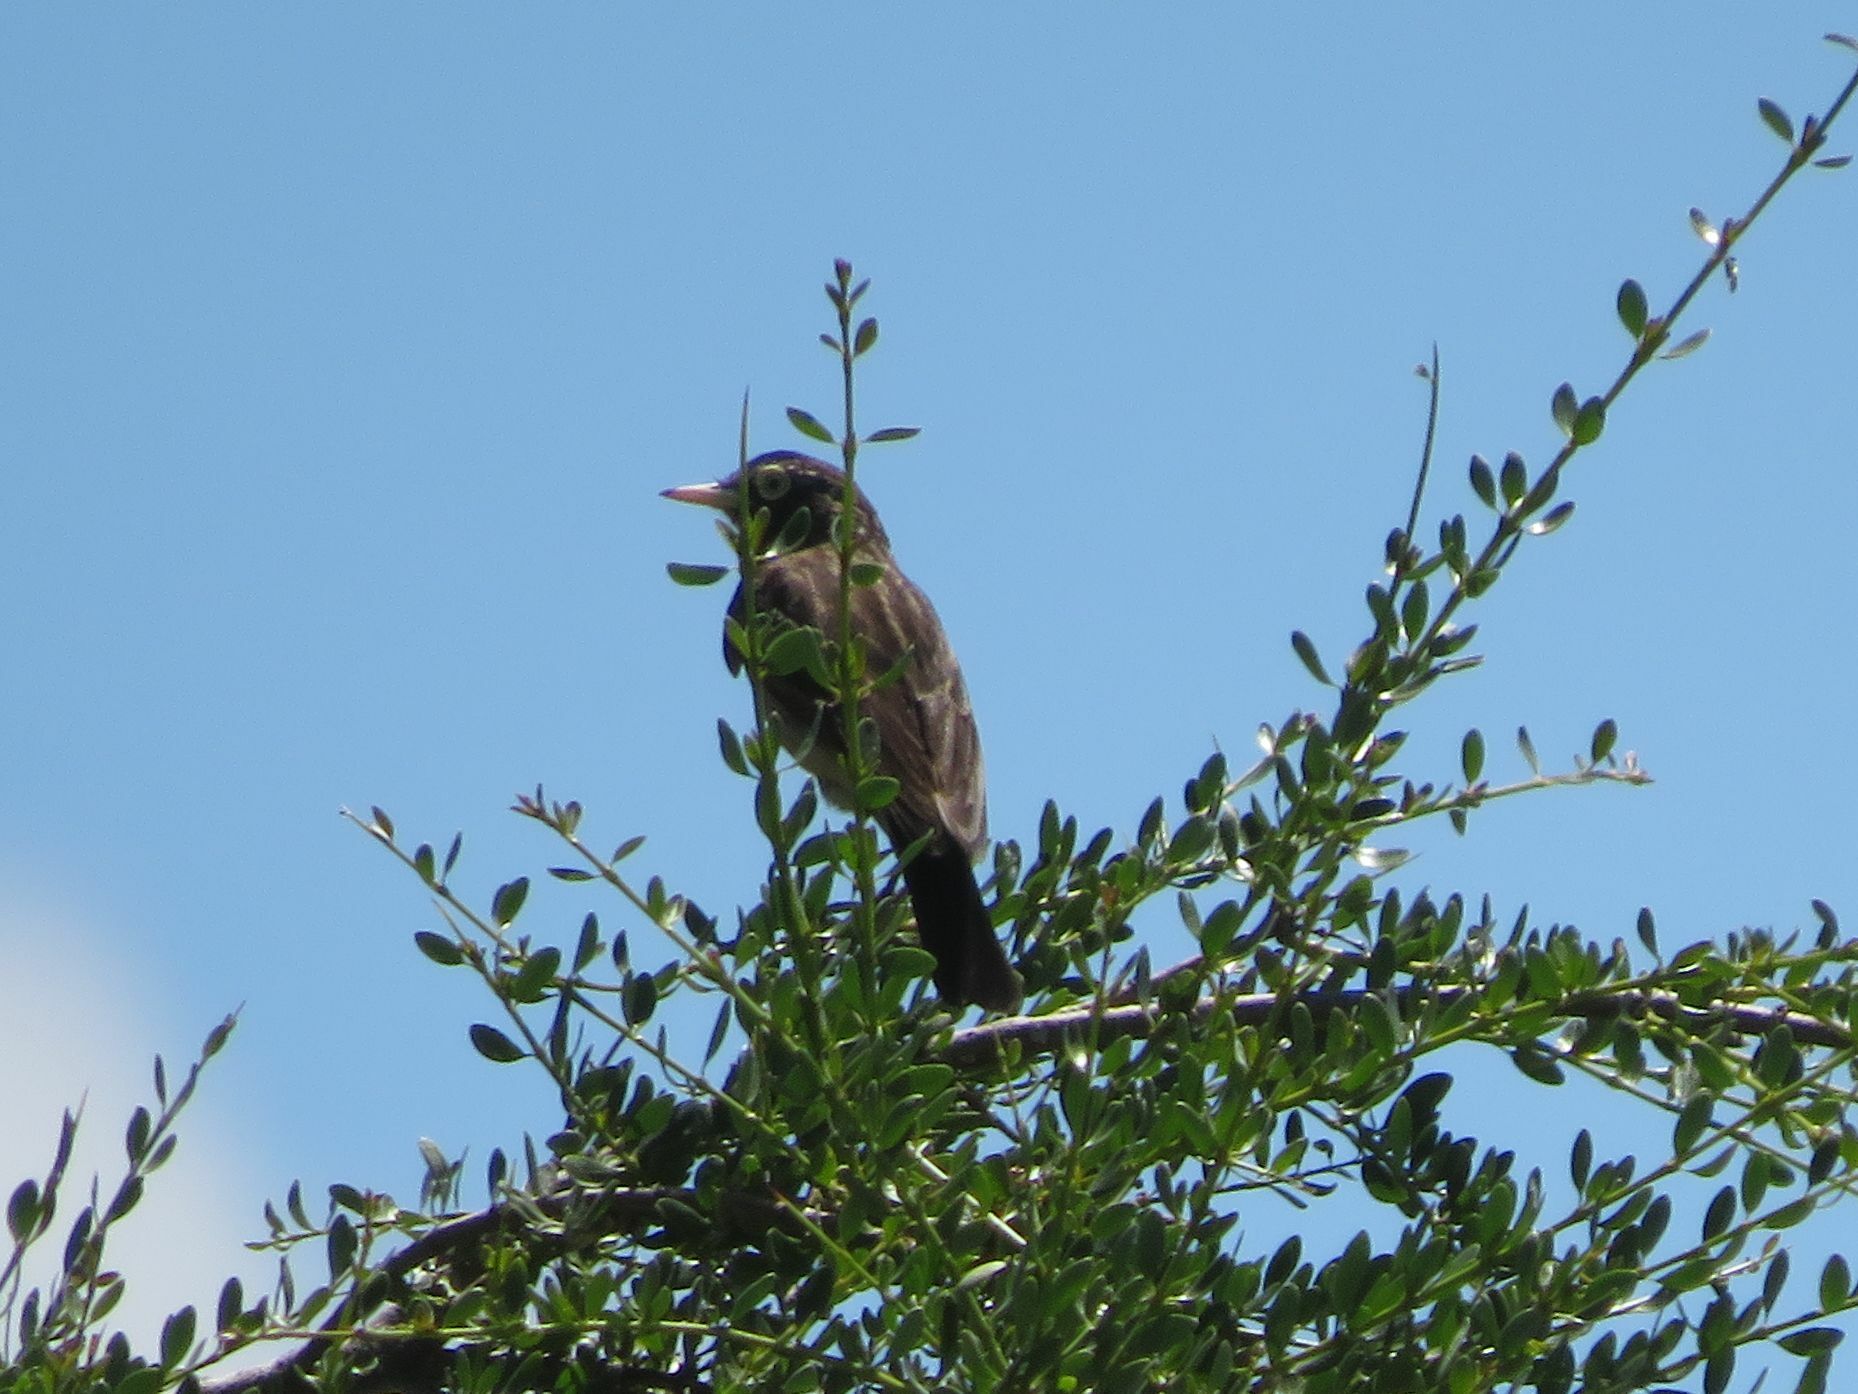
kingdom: Animalia
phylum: Chordata
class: Aves
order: Passeriformes
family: Tyrannidae
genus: Hymenops
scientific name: Hymenops perspicillatus
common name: Spectacled tyrant
